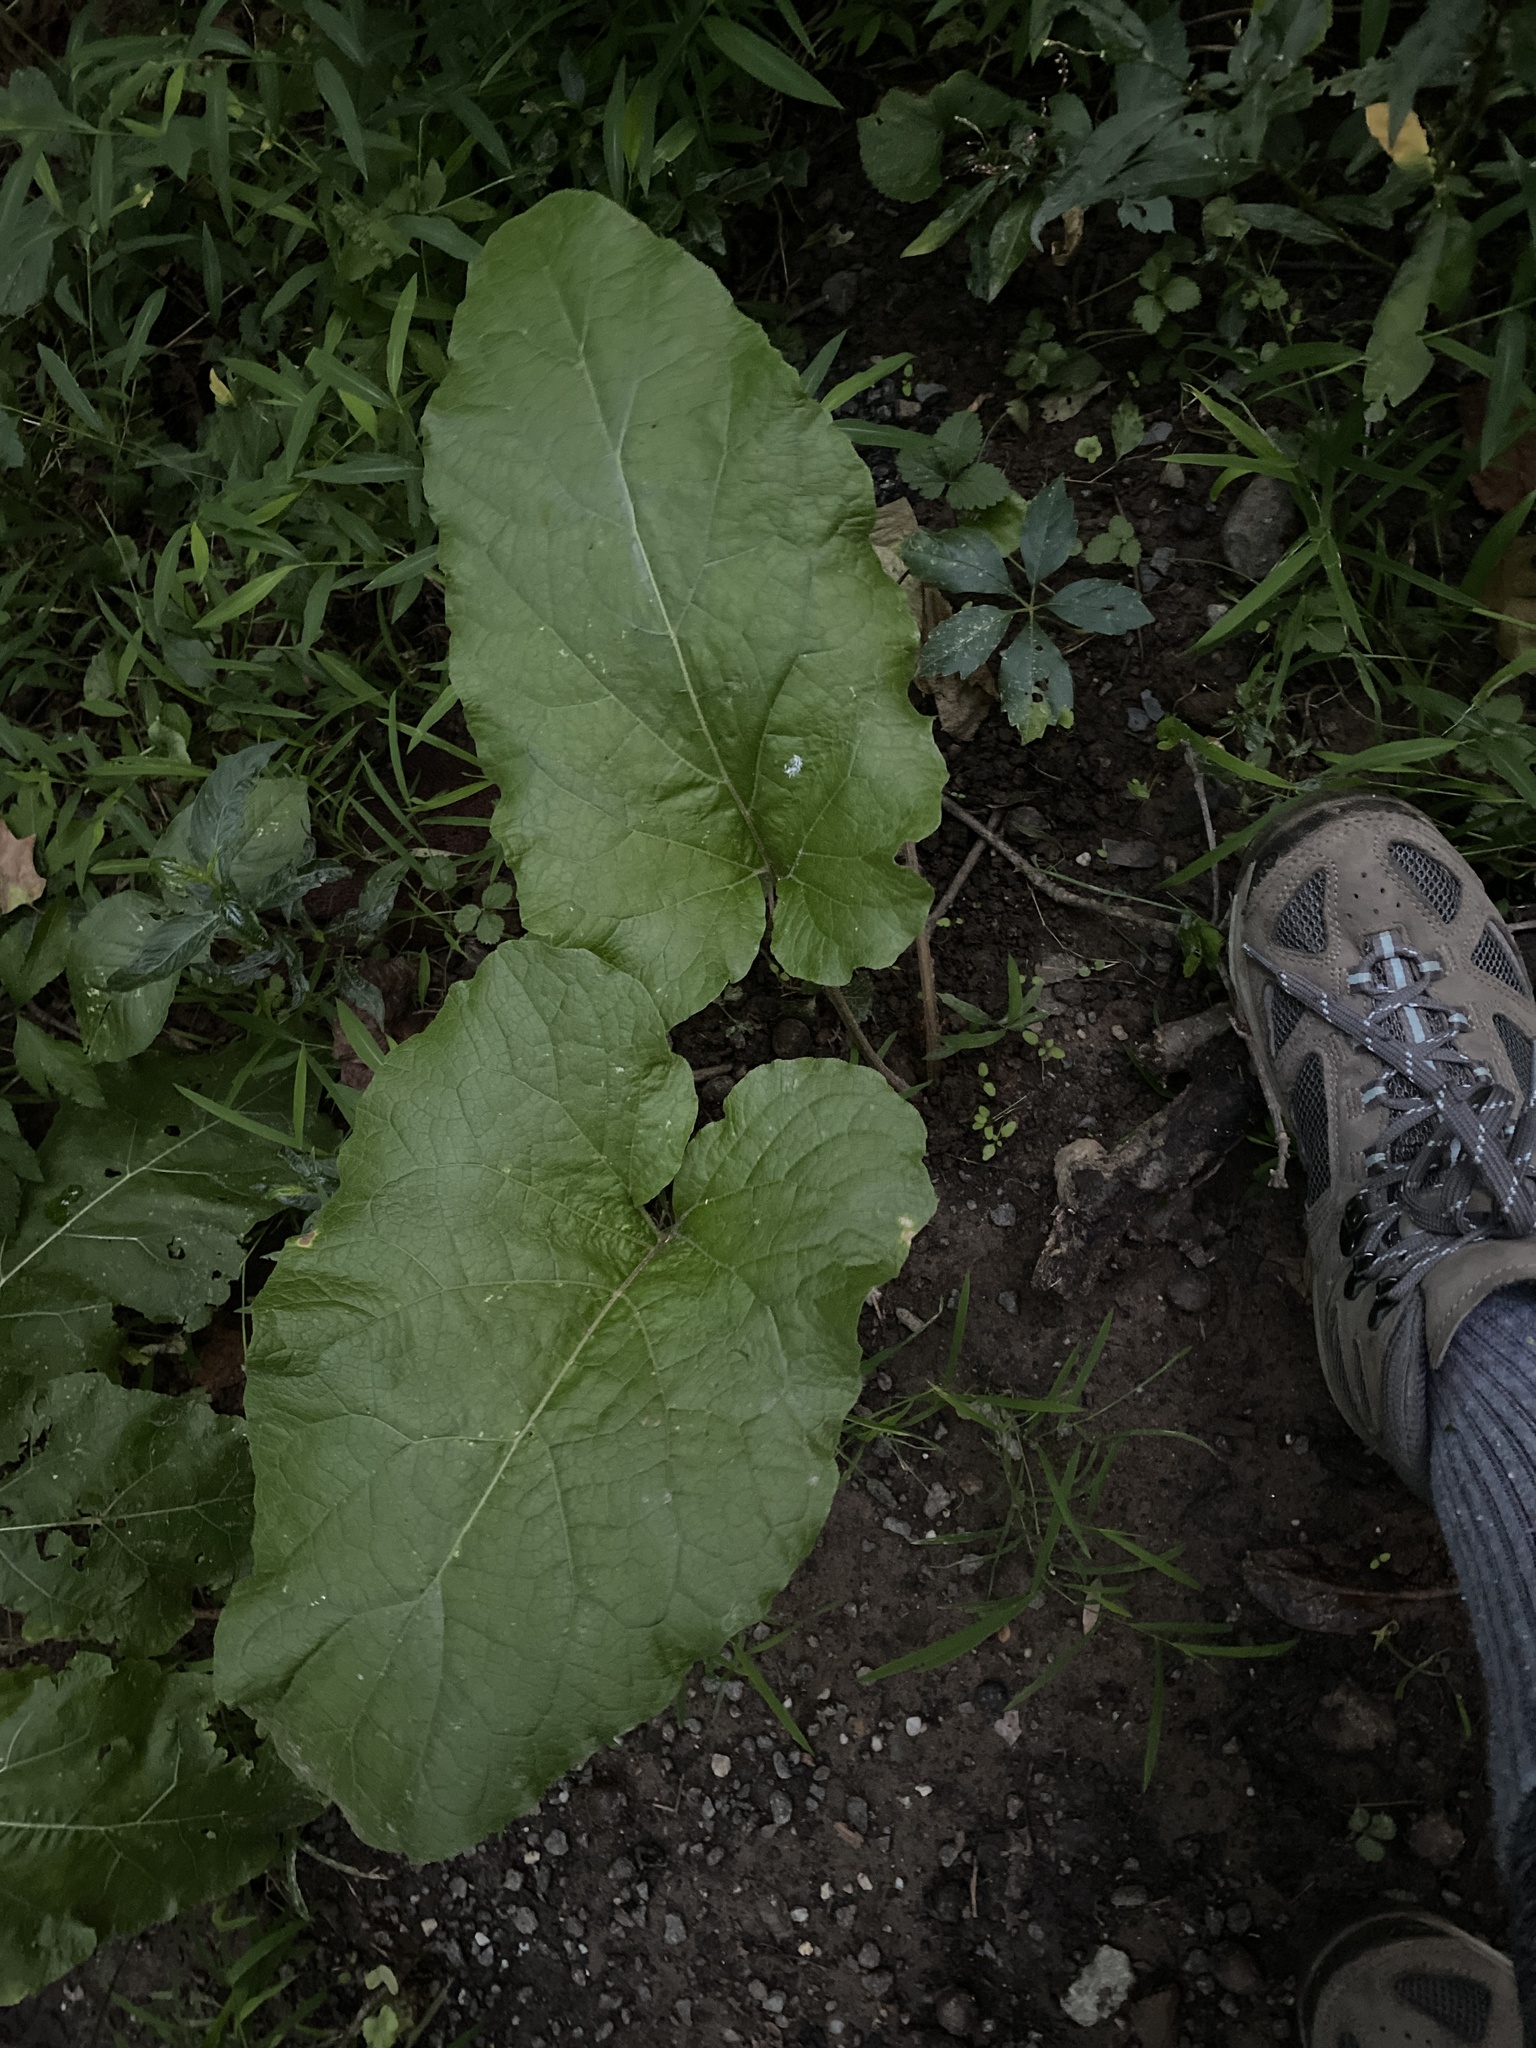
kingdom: Plantae
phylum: Tracheophyta
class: Magnoliopsida
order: Asterales
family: Asteraceae
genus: Arctium
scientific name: Arctium minus
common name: Lesser burdock
